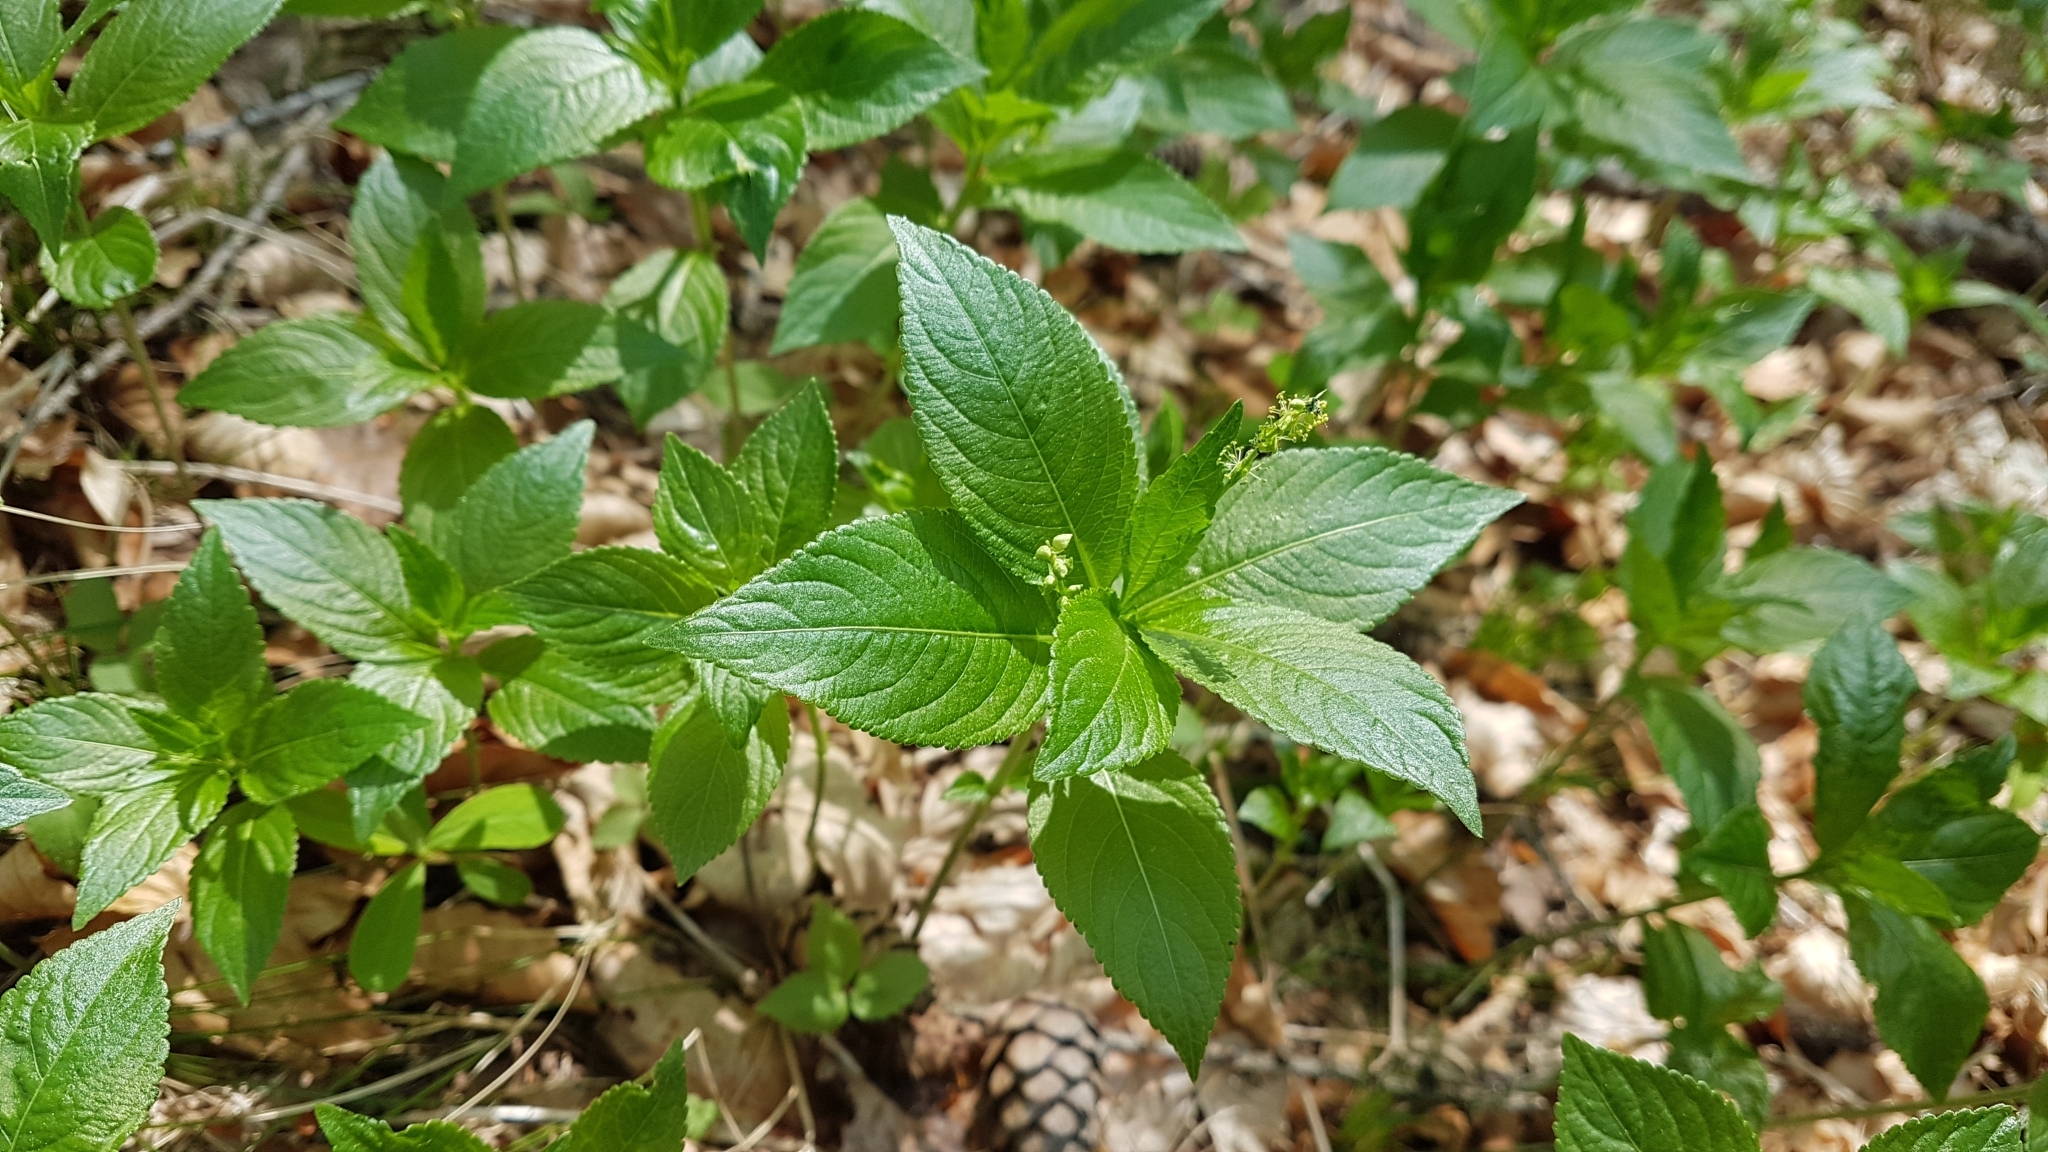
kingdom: Plantae
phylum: Tracheophyta
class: Magnoliopsida
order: Malpighiales
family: Euphorbiaceae
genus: Mercurialis
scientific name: Mercurialis ovata
